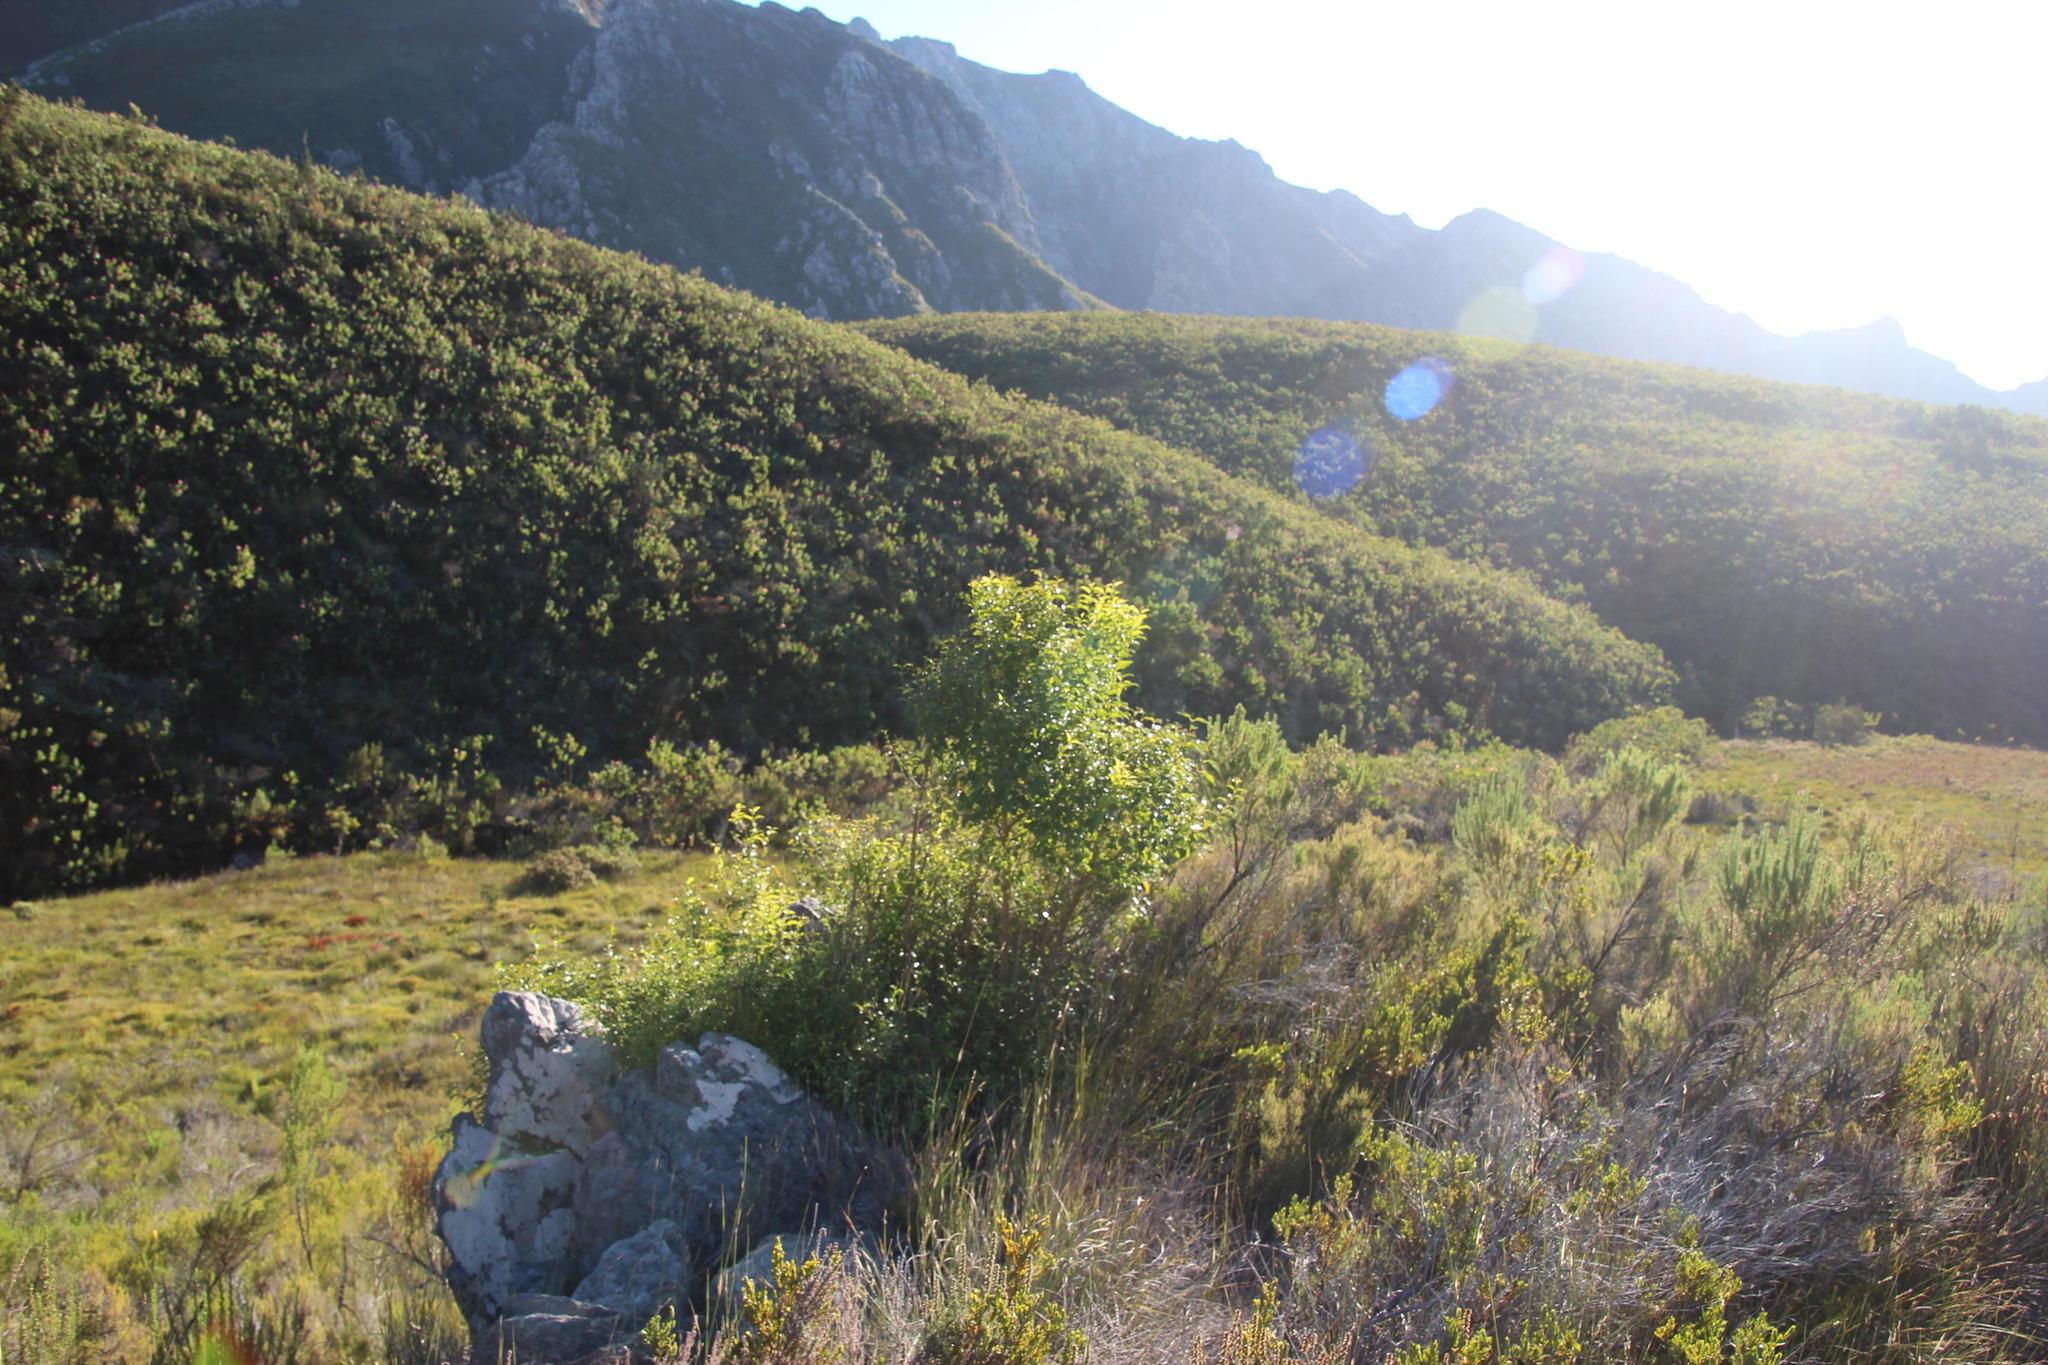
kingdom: Plantae
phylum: Tracheophyta
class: Magnoliopsida
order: Lamiales
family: Stilbaceae
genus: Halleria
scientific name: Halleria lucida
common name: Tree fuschia
